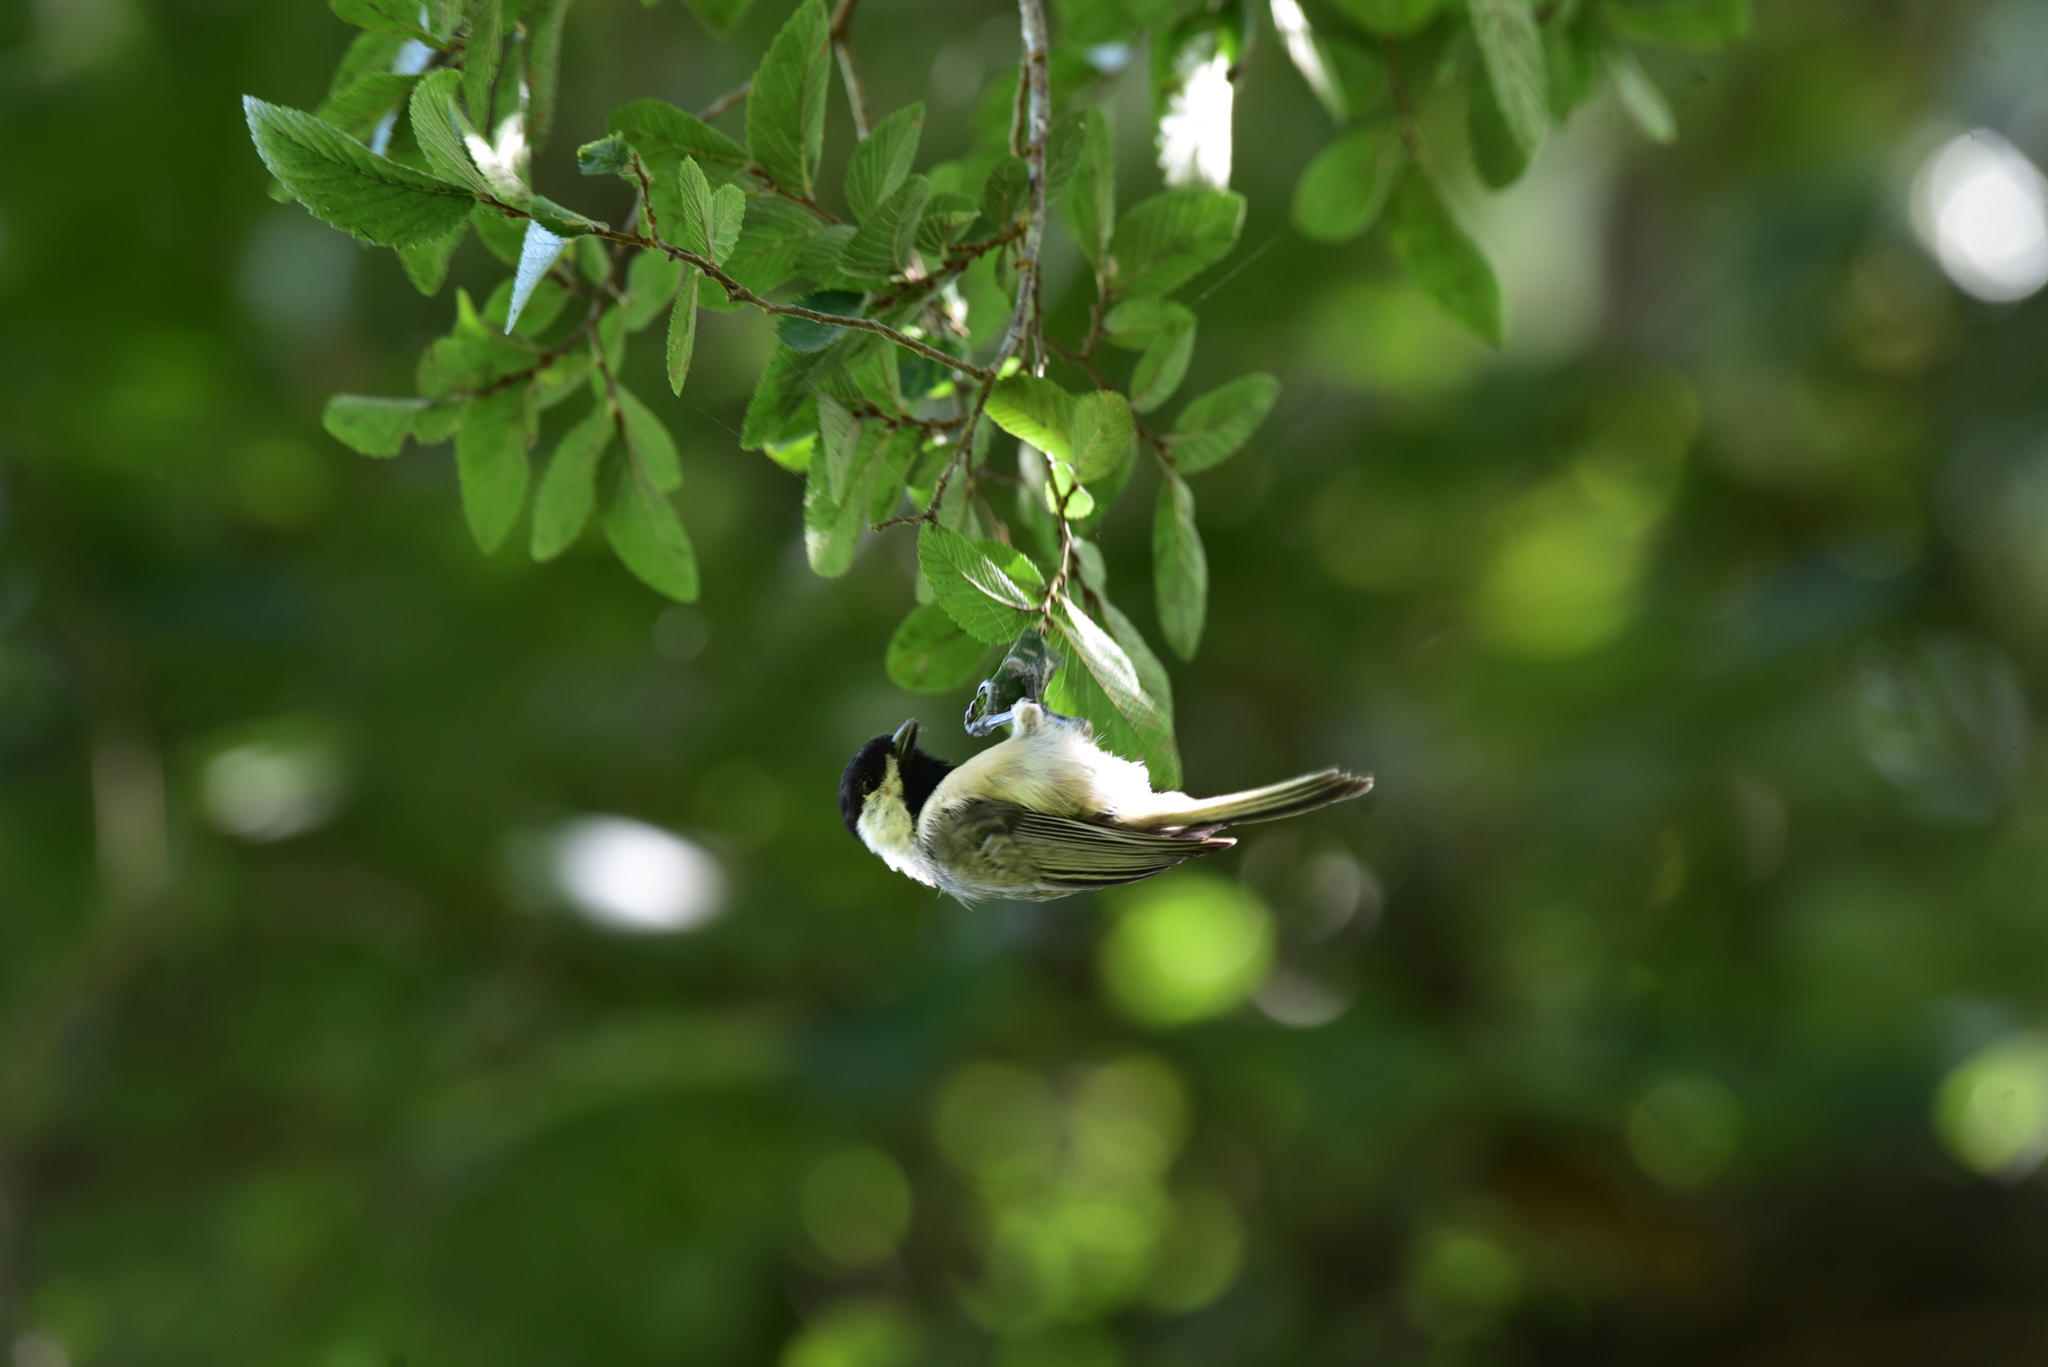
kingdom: Animalia
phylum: Chordata
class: Aves
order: Passeriformes
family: Paridae
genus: Poecile
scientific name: Poecile carolinensis
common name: Carolina chickadee
